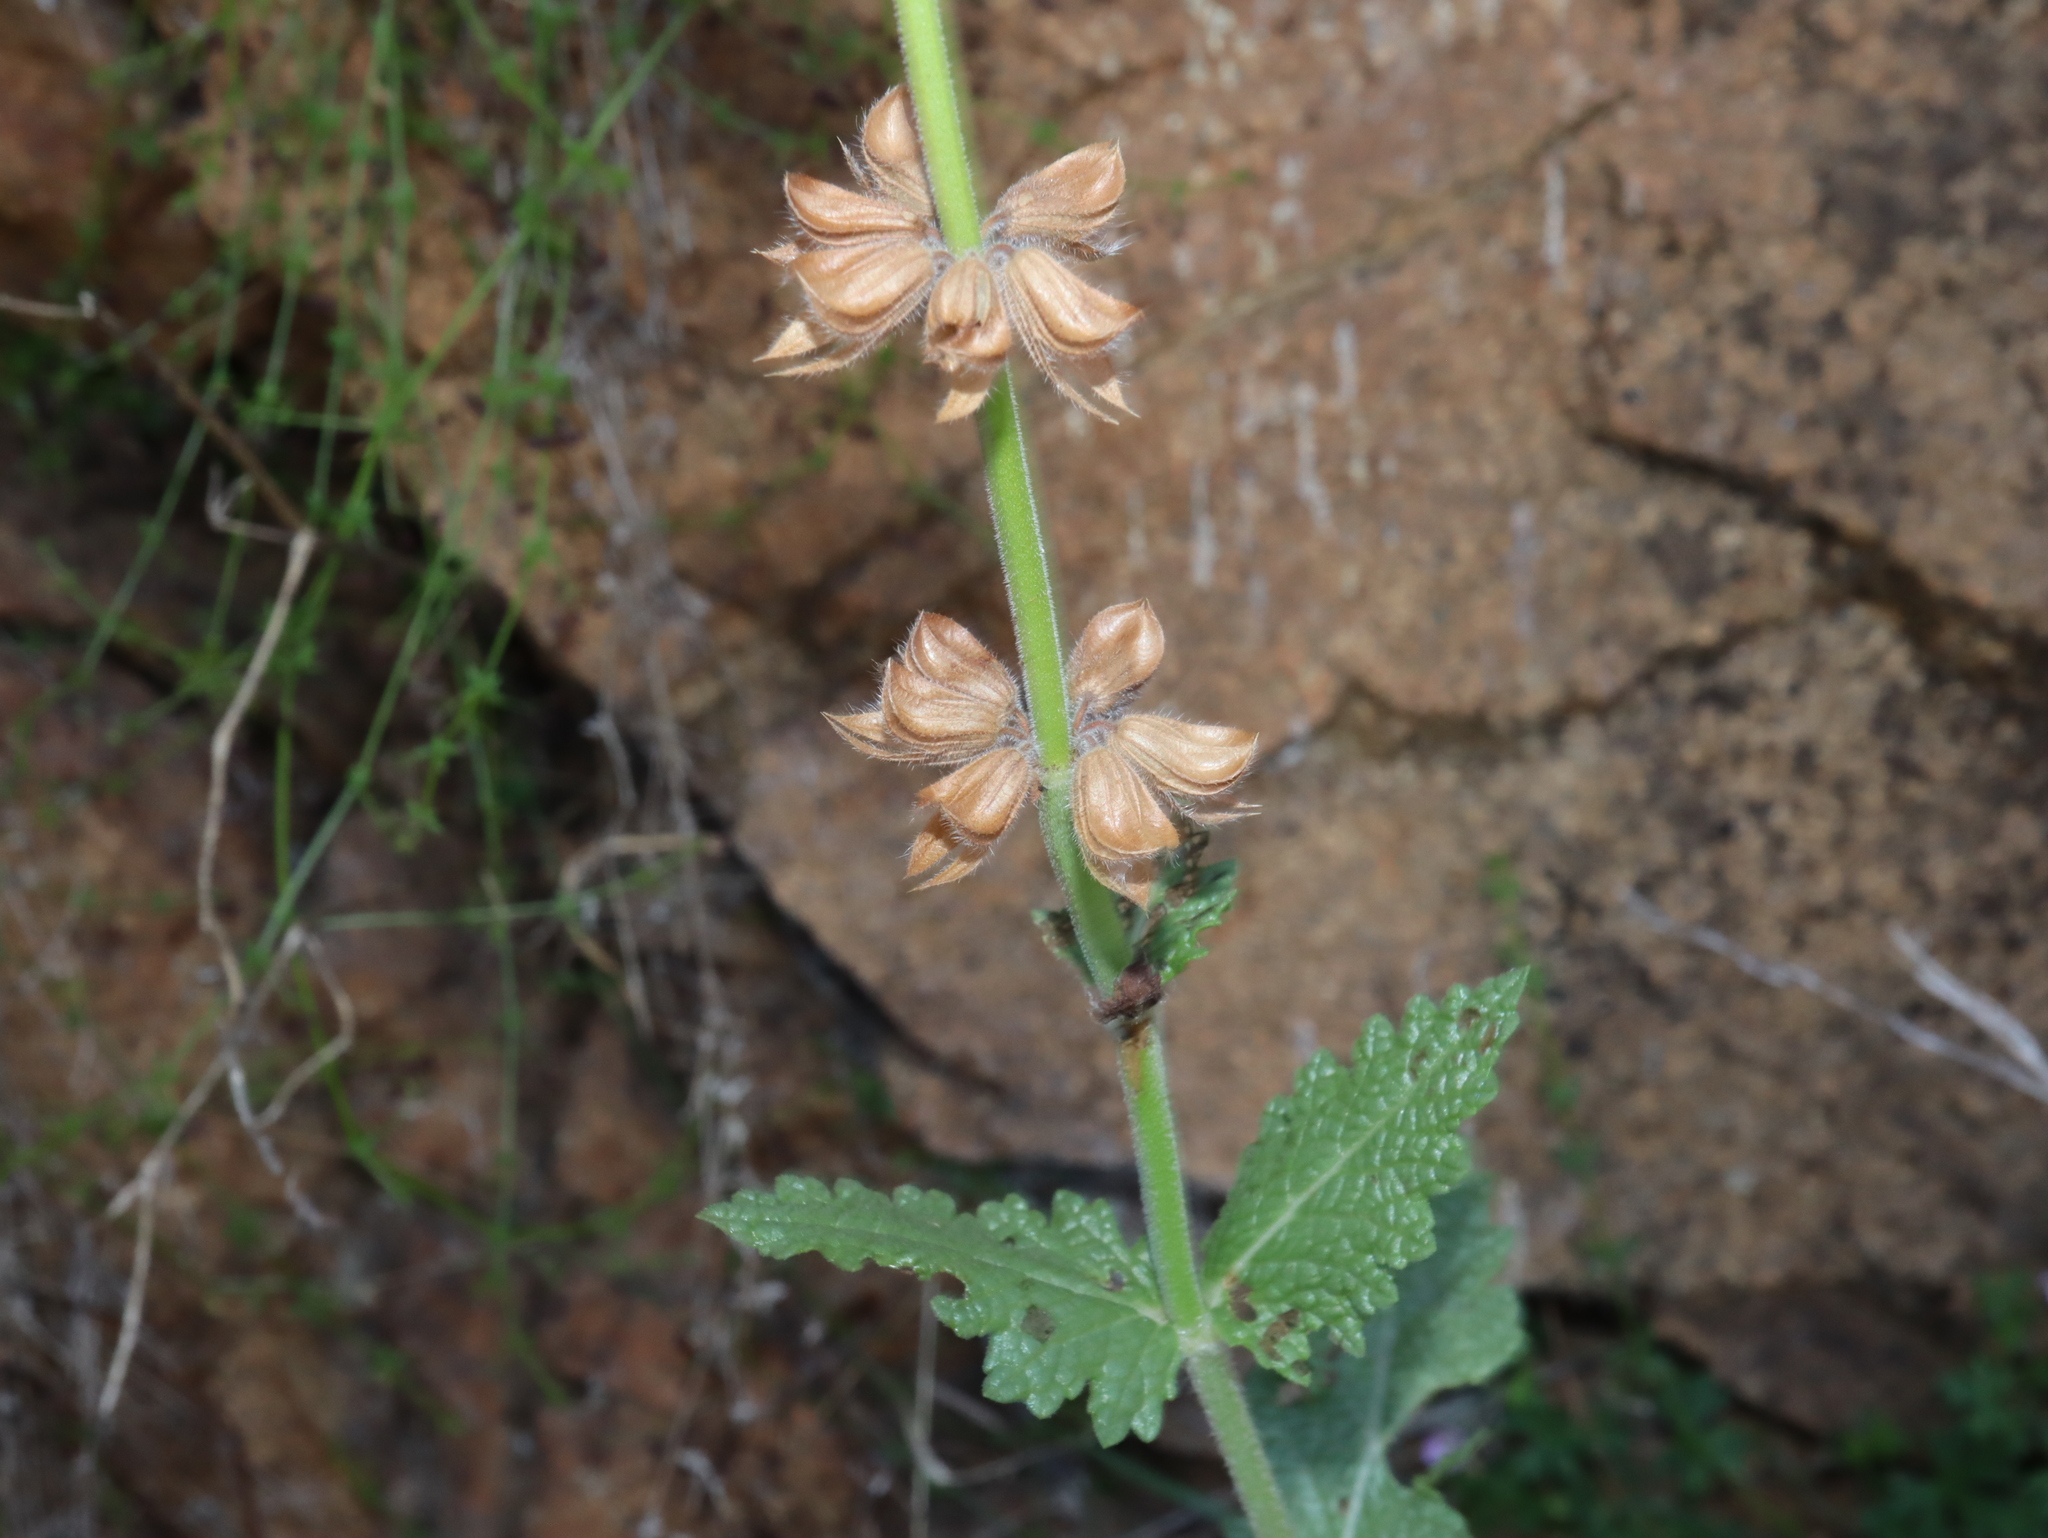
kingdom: Plantae
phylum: Tracheophyta
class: Magnoliopsida
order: Lamiales
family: Lamiaceae
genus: Salvia
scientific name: Salvia verbenaca
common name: Wild clary
